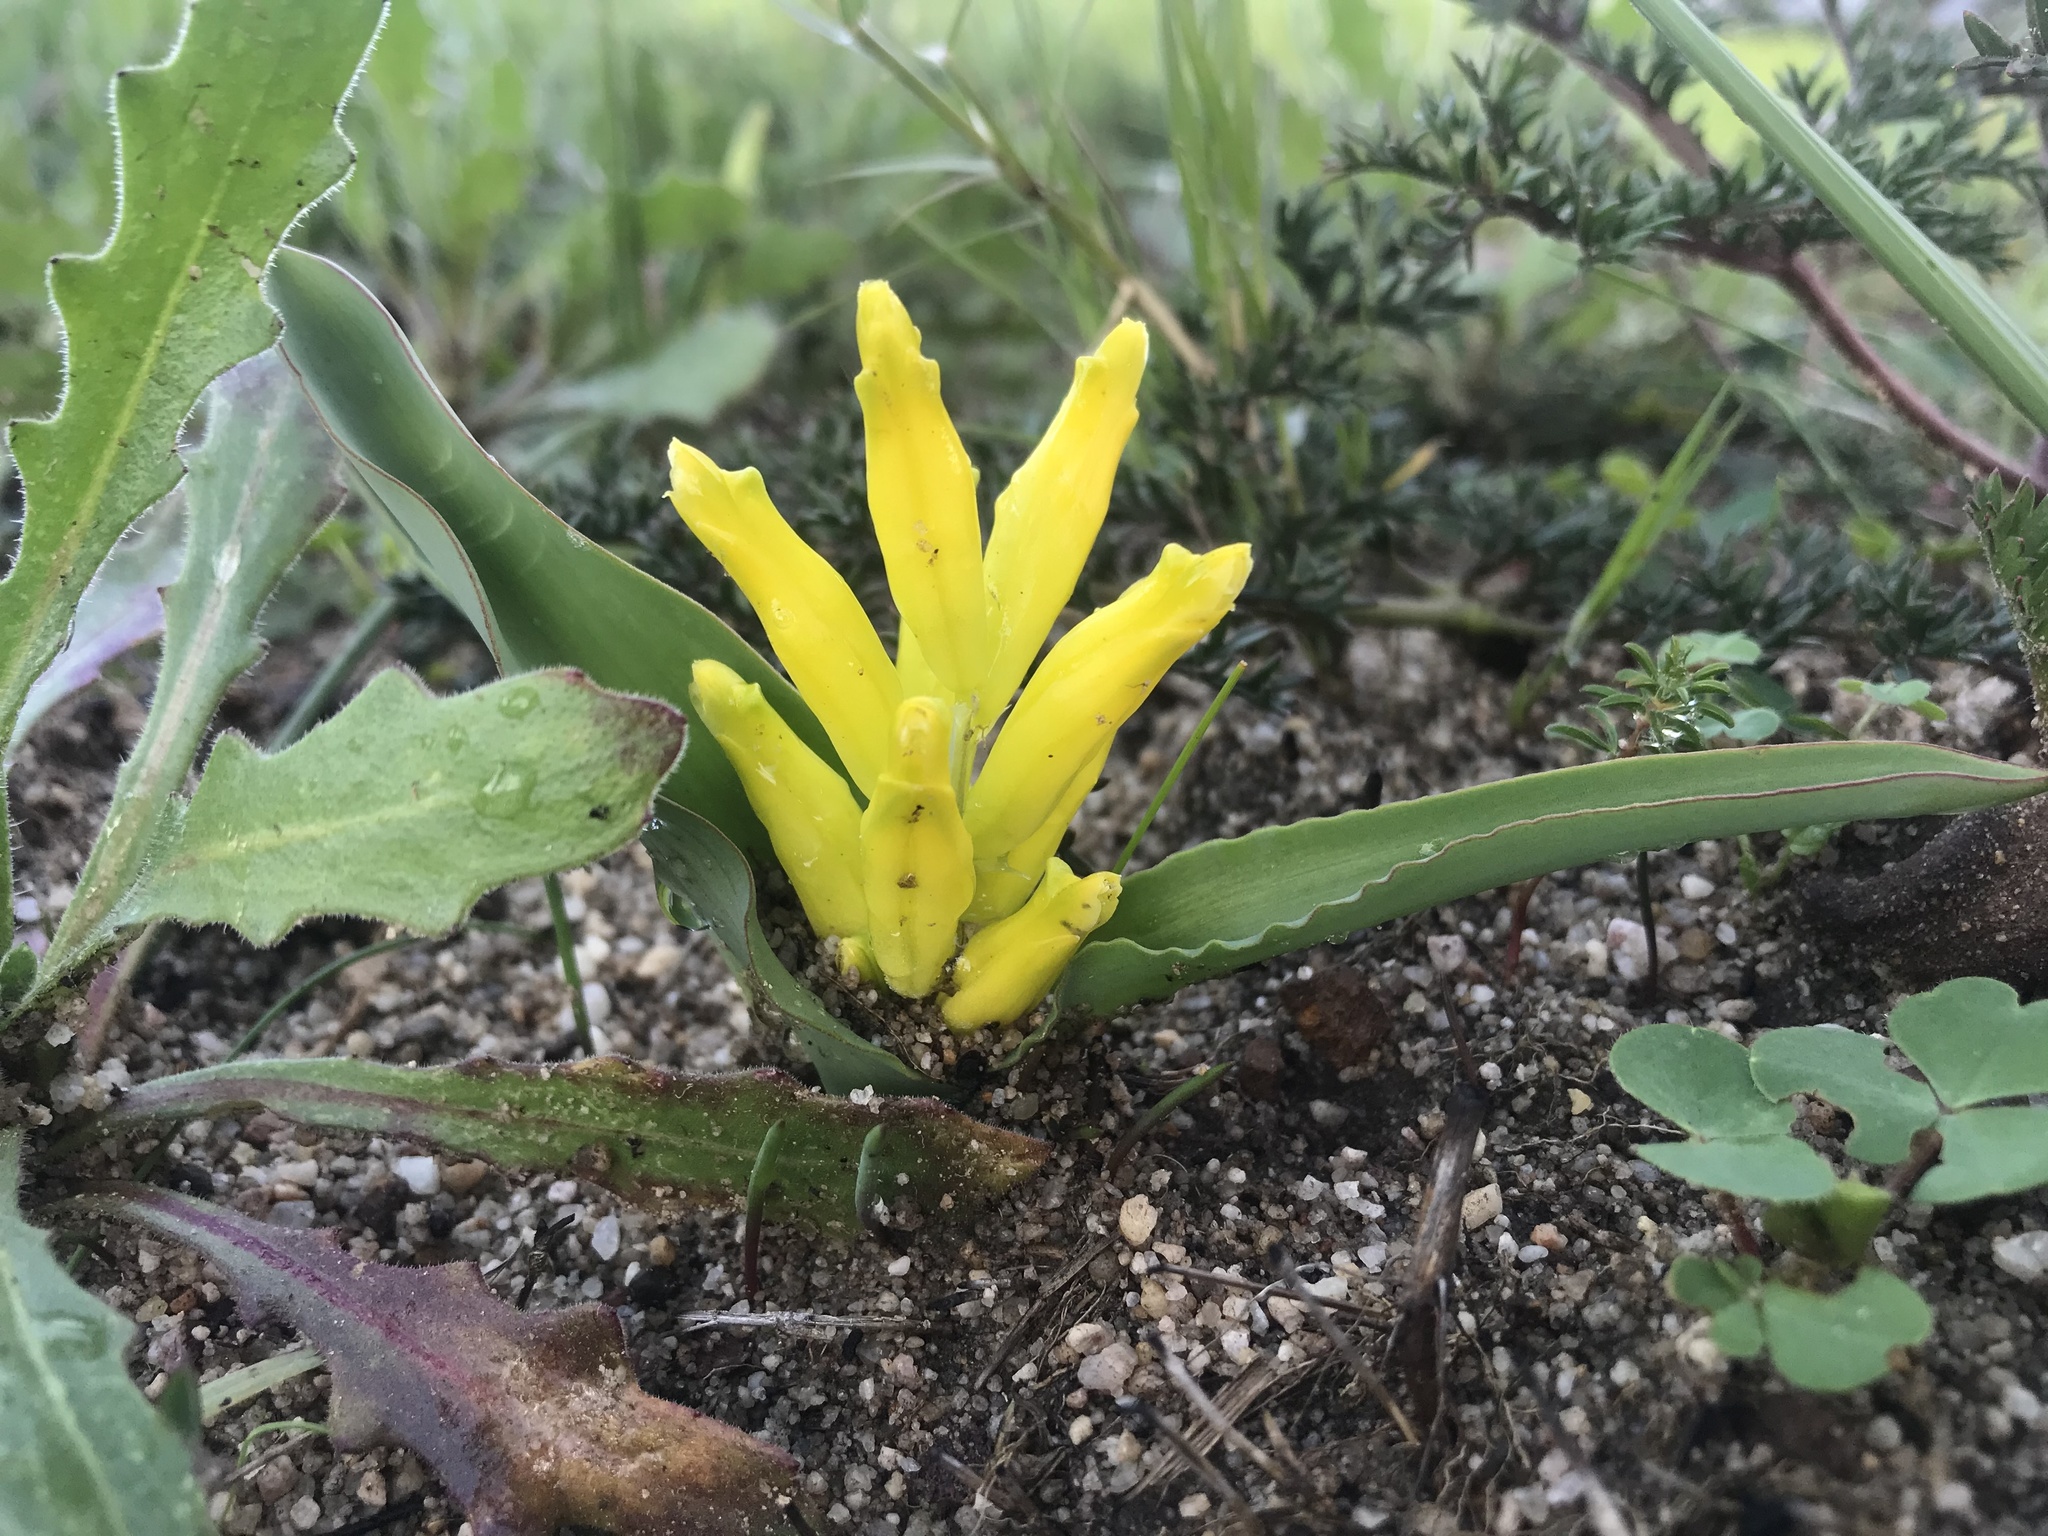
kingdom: Plantae
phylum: Tracheophyta
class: Liliopsida
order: Asparagales
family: Asparagaceae
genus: Lachenalia
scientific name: Lachenalia reflexa
